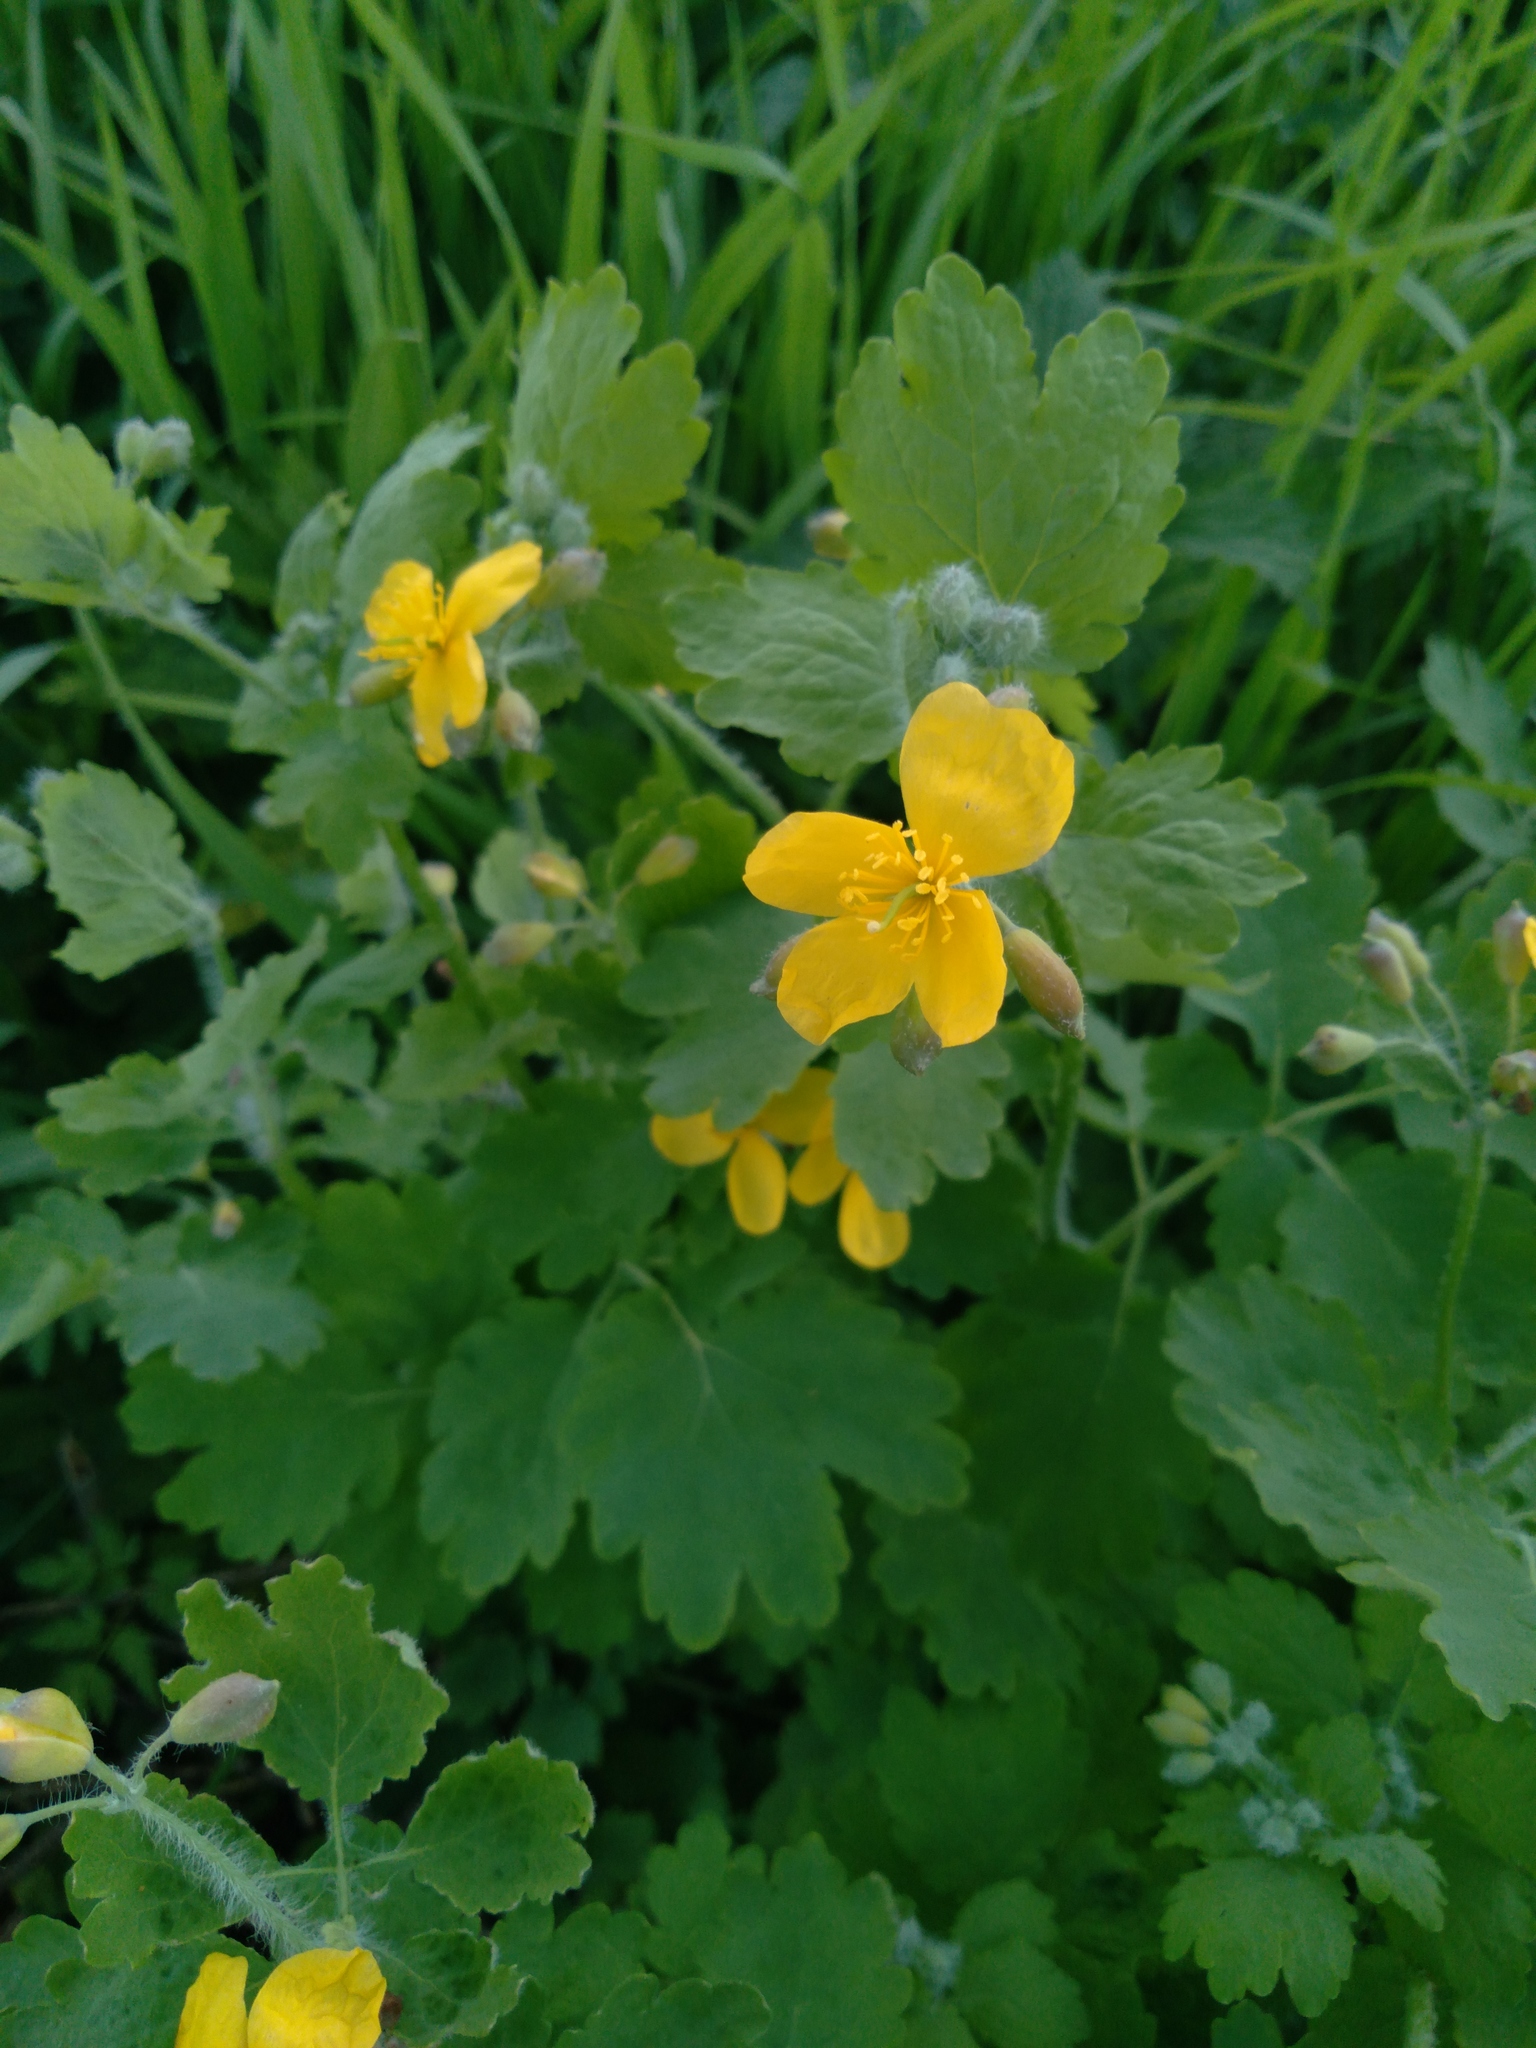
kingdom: Plantae
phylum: Tracheophyta
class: Magnoliopsida
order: Ranunculales
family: Papaveraceae
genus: Chelidonium
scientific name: Chelidonium majus
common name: Greater celandine
